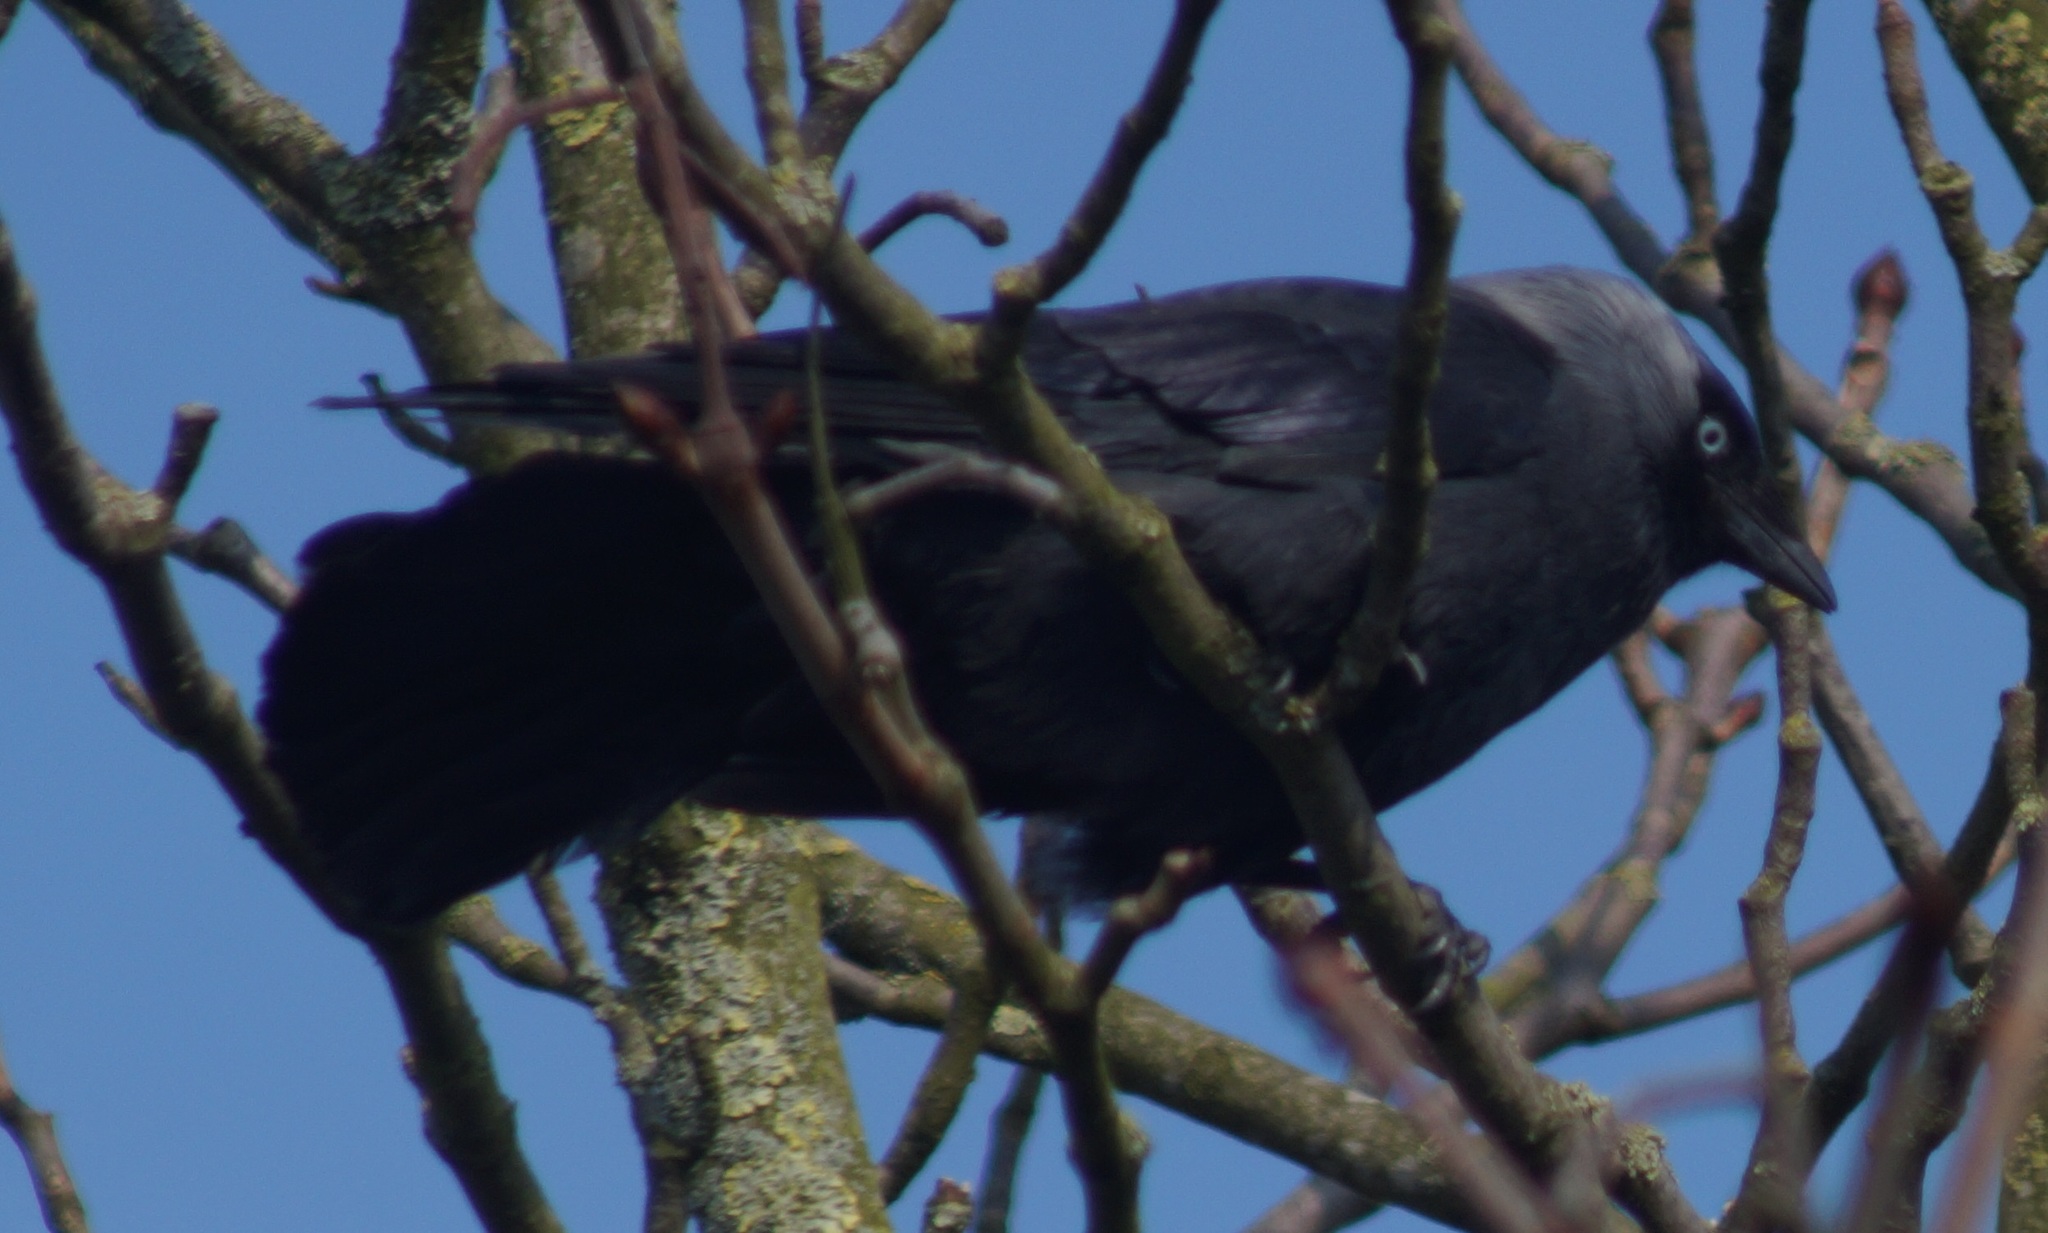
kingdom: Animalia
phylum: Chordata
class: Aves
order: Passeriformes
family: Corvidae
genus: Coloeus
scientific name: Coloeus monedula
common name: Western jackdaw
